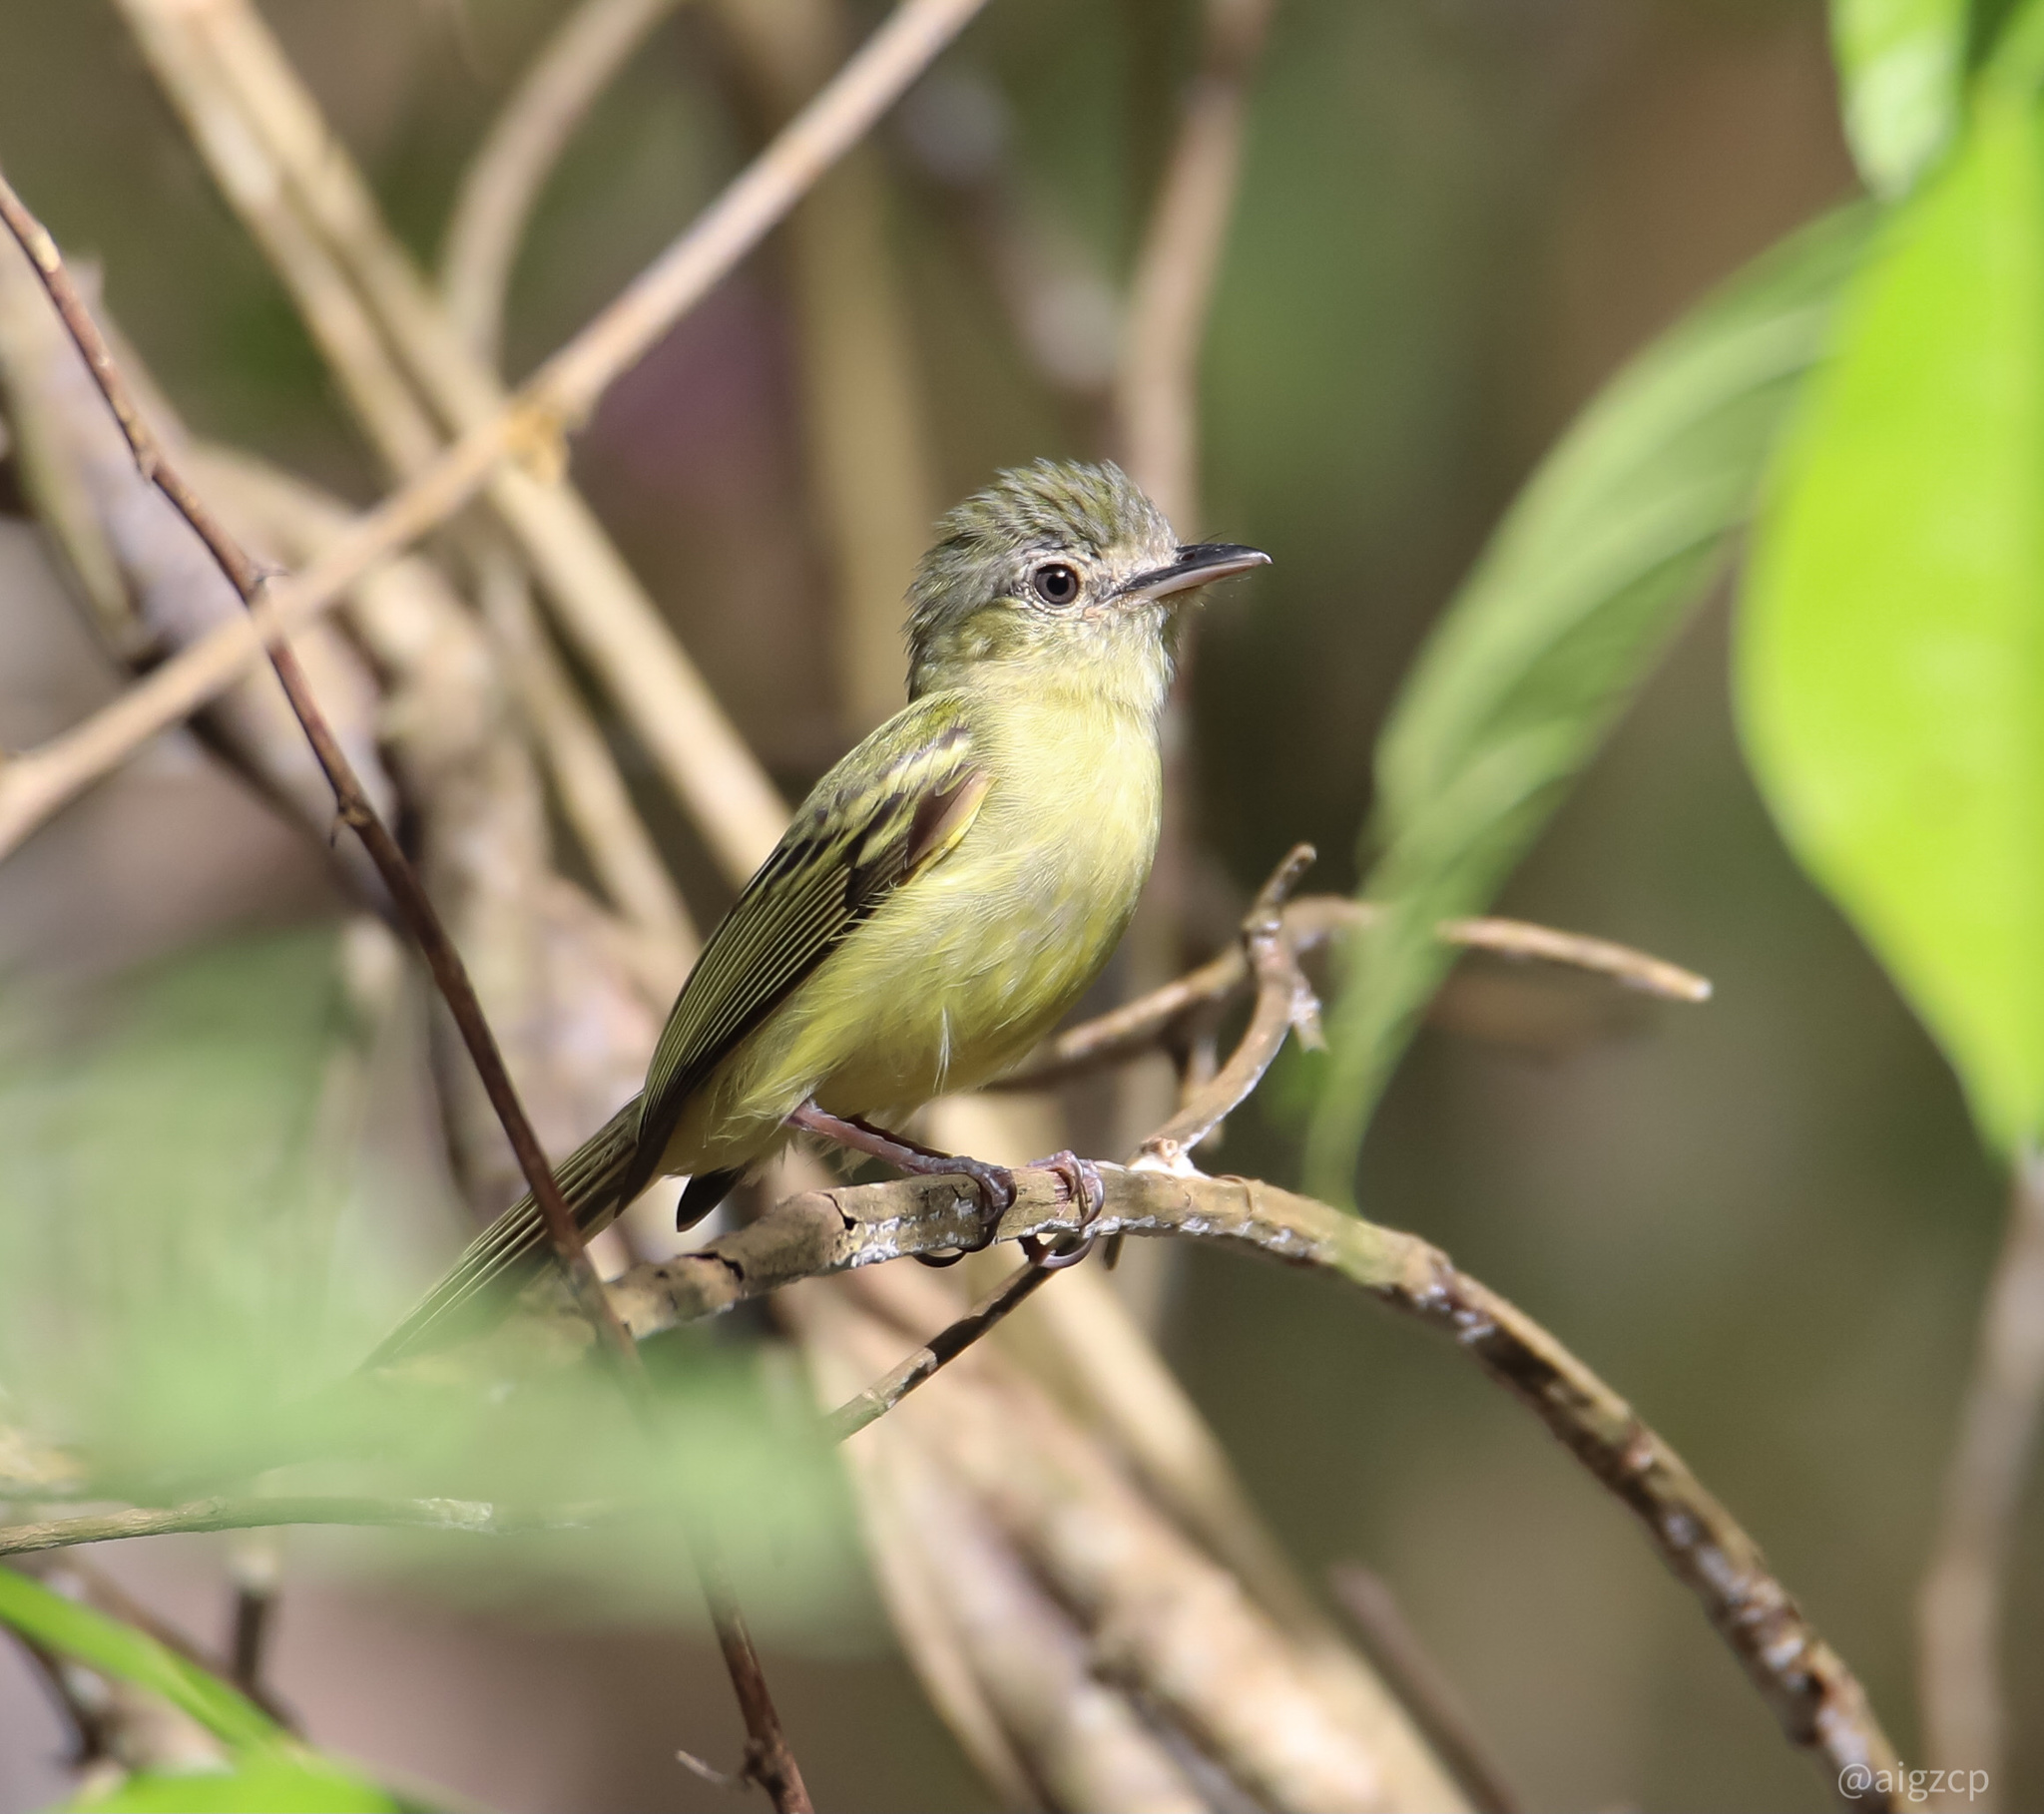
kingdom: Animalia
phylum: Chordata
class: Aves
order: Passeriformes
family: Tyrannidae
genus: Tolmomyias
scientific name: Tolmomyias sulphurescens
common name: Yellow-olive flycatcher
